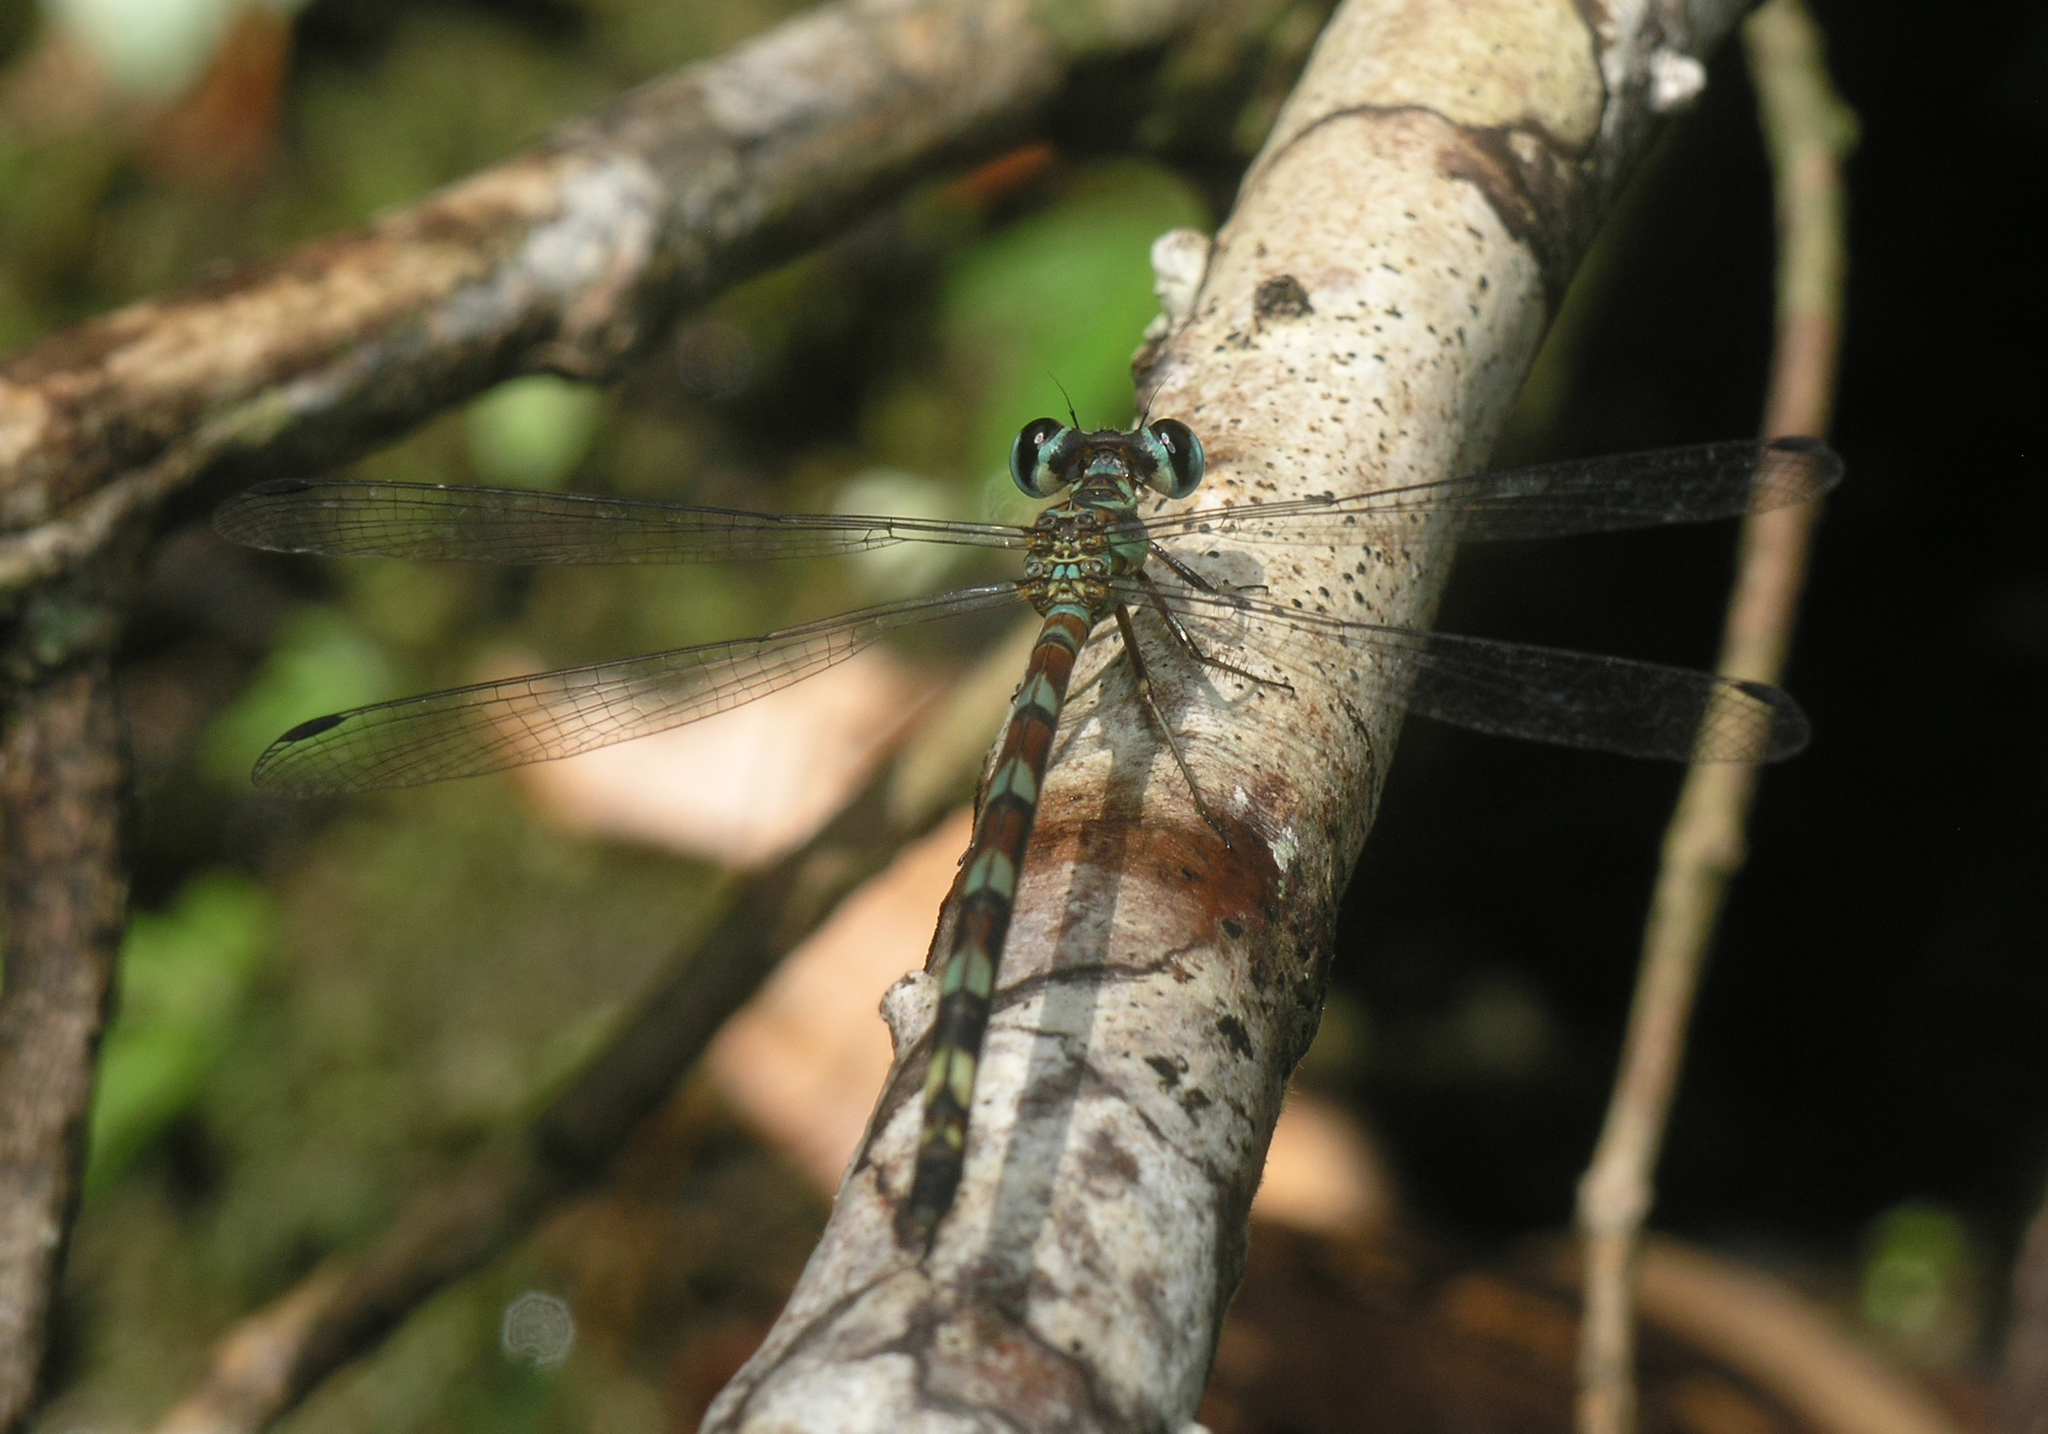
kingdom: Animalia
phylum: Arthropoda
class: Insecta
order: Odonata
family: Philosinidae
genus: Rhinagrion
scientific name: Rhinagrion viridatum
